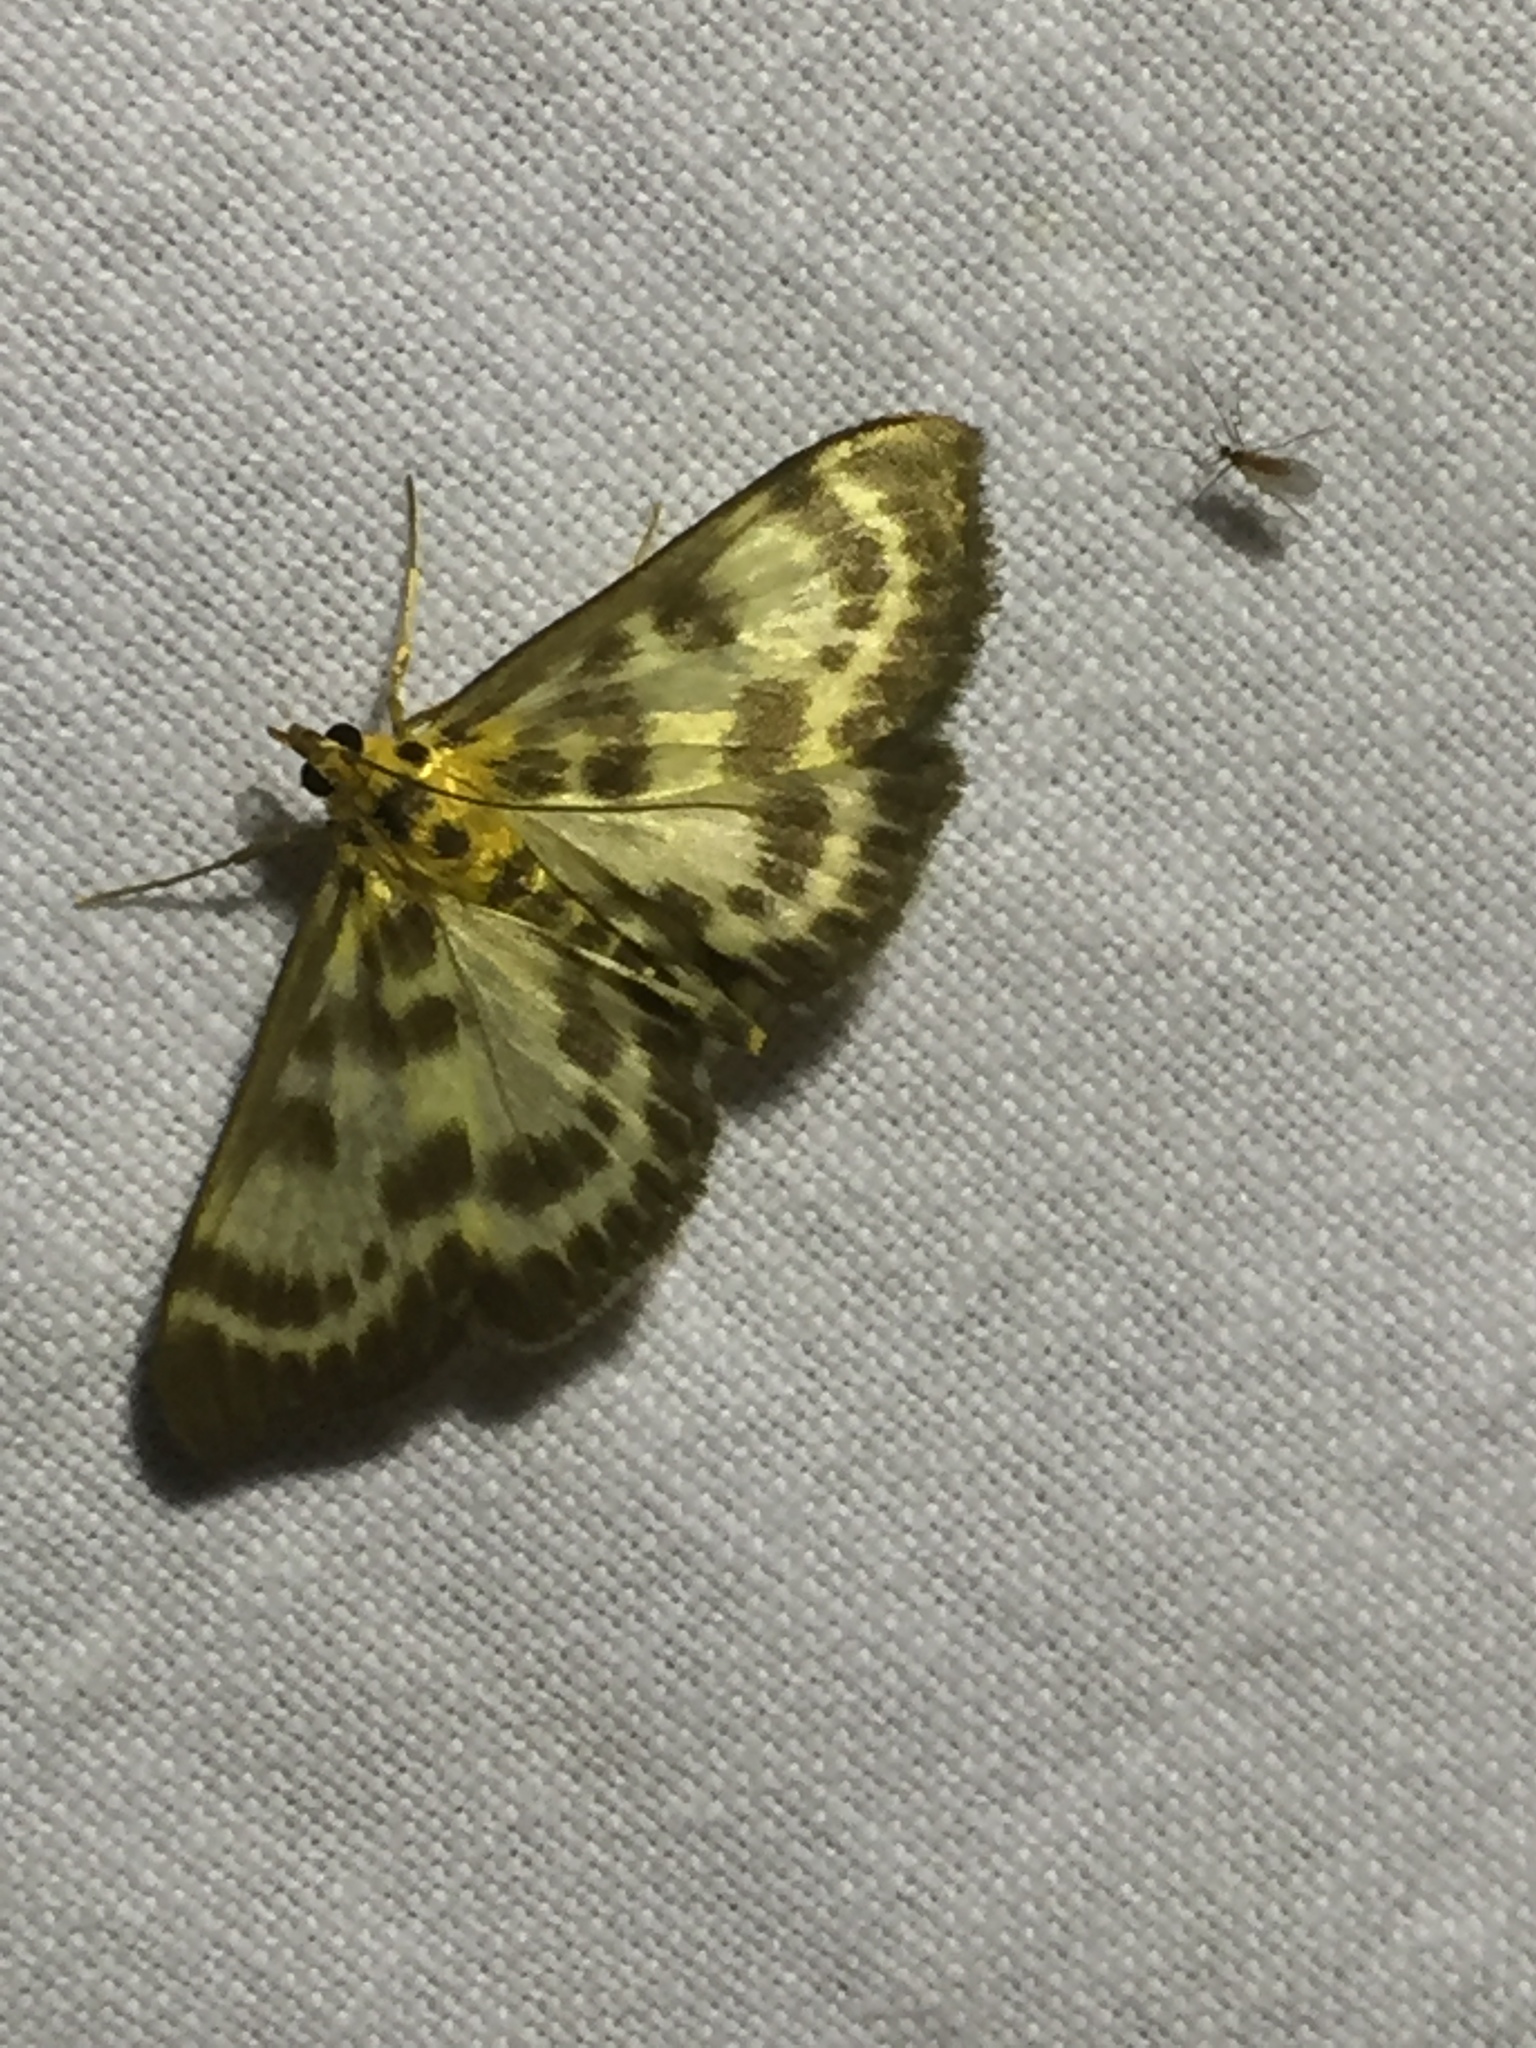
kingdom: Animalia
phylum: Arthropoda
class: Insecta
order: Lepidoptera
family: Crambidae
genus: Anania
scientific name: Anania hortulata
